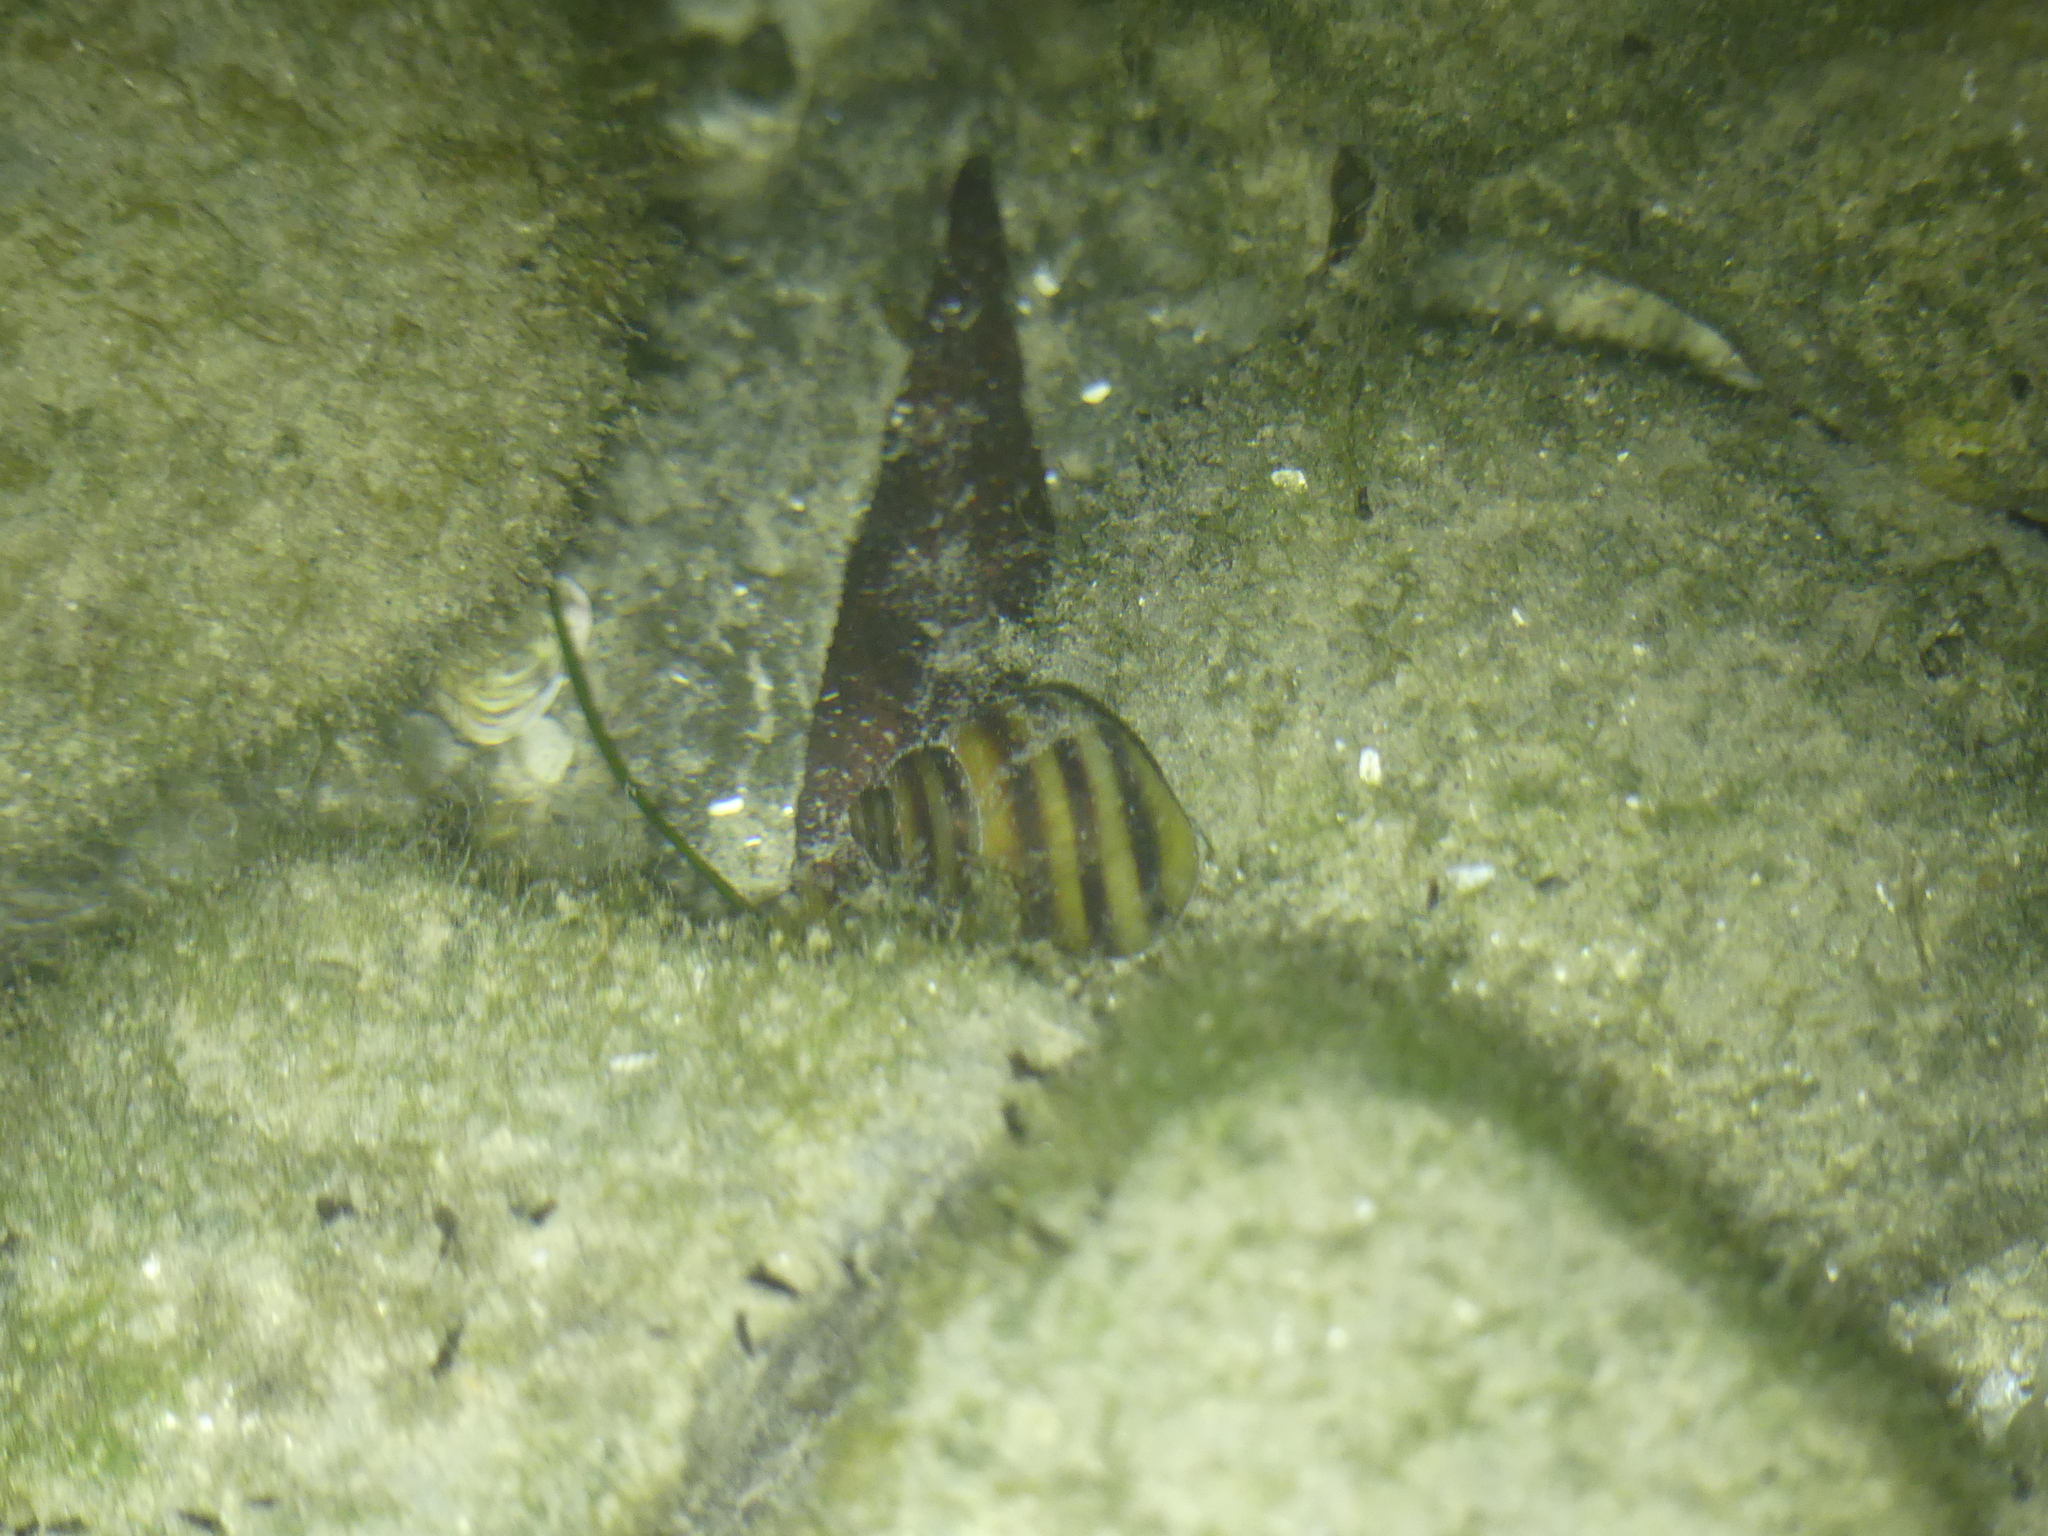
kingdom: Animalia
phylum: Mollusca
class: Gastropoda
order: Architaenioglossa
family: Viviparidae
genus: Viviparus
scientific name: Viviparus ater
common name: Italian river snail
